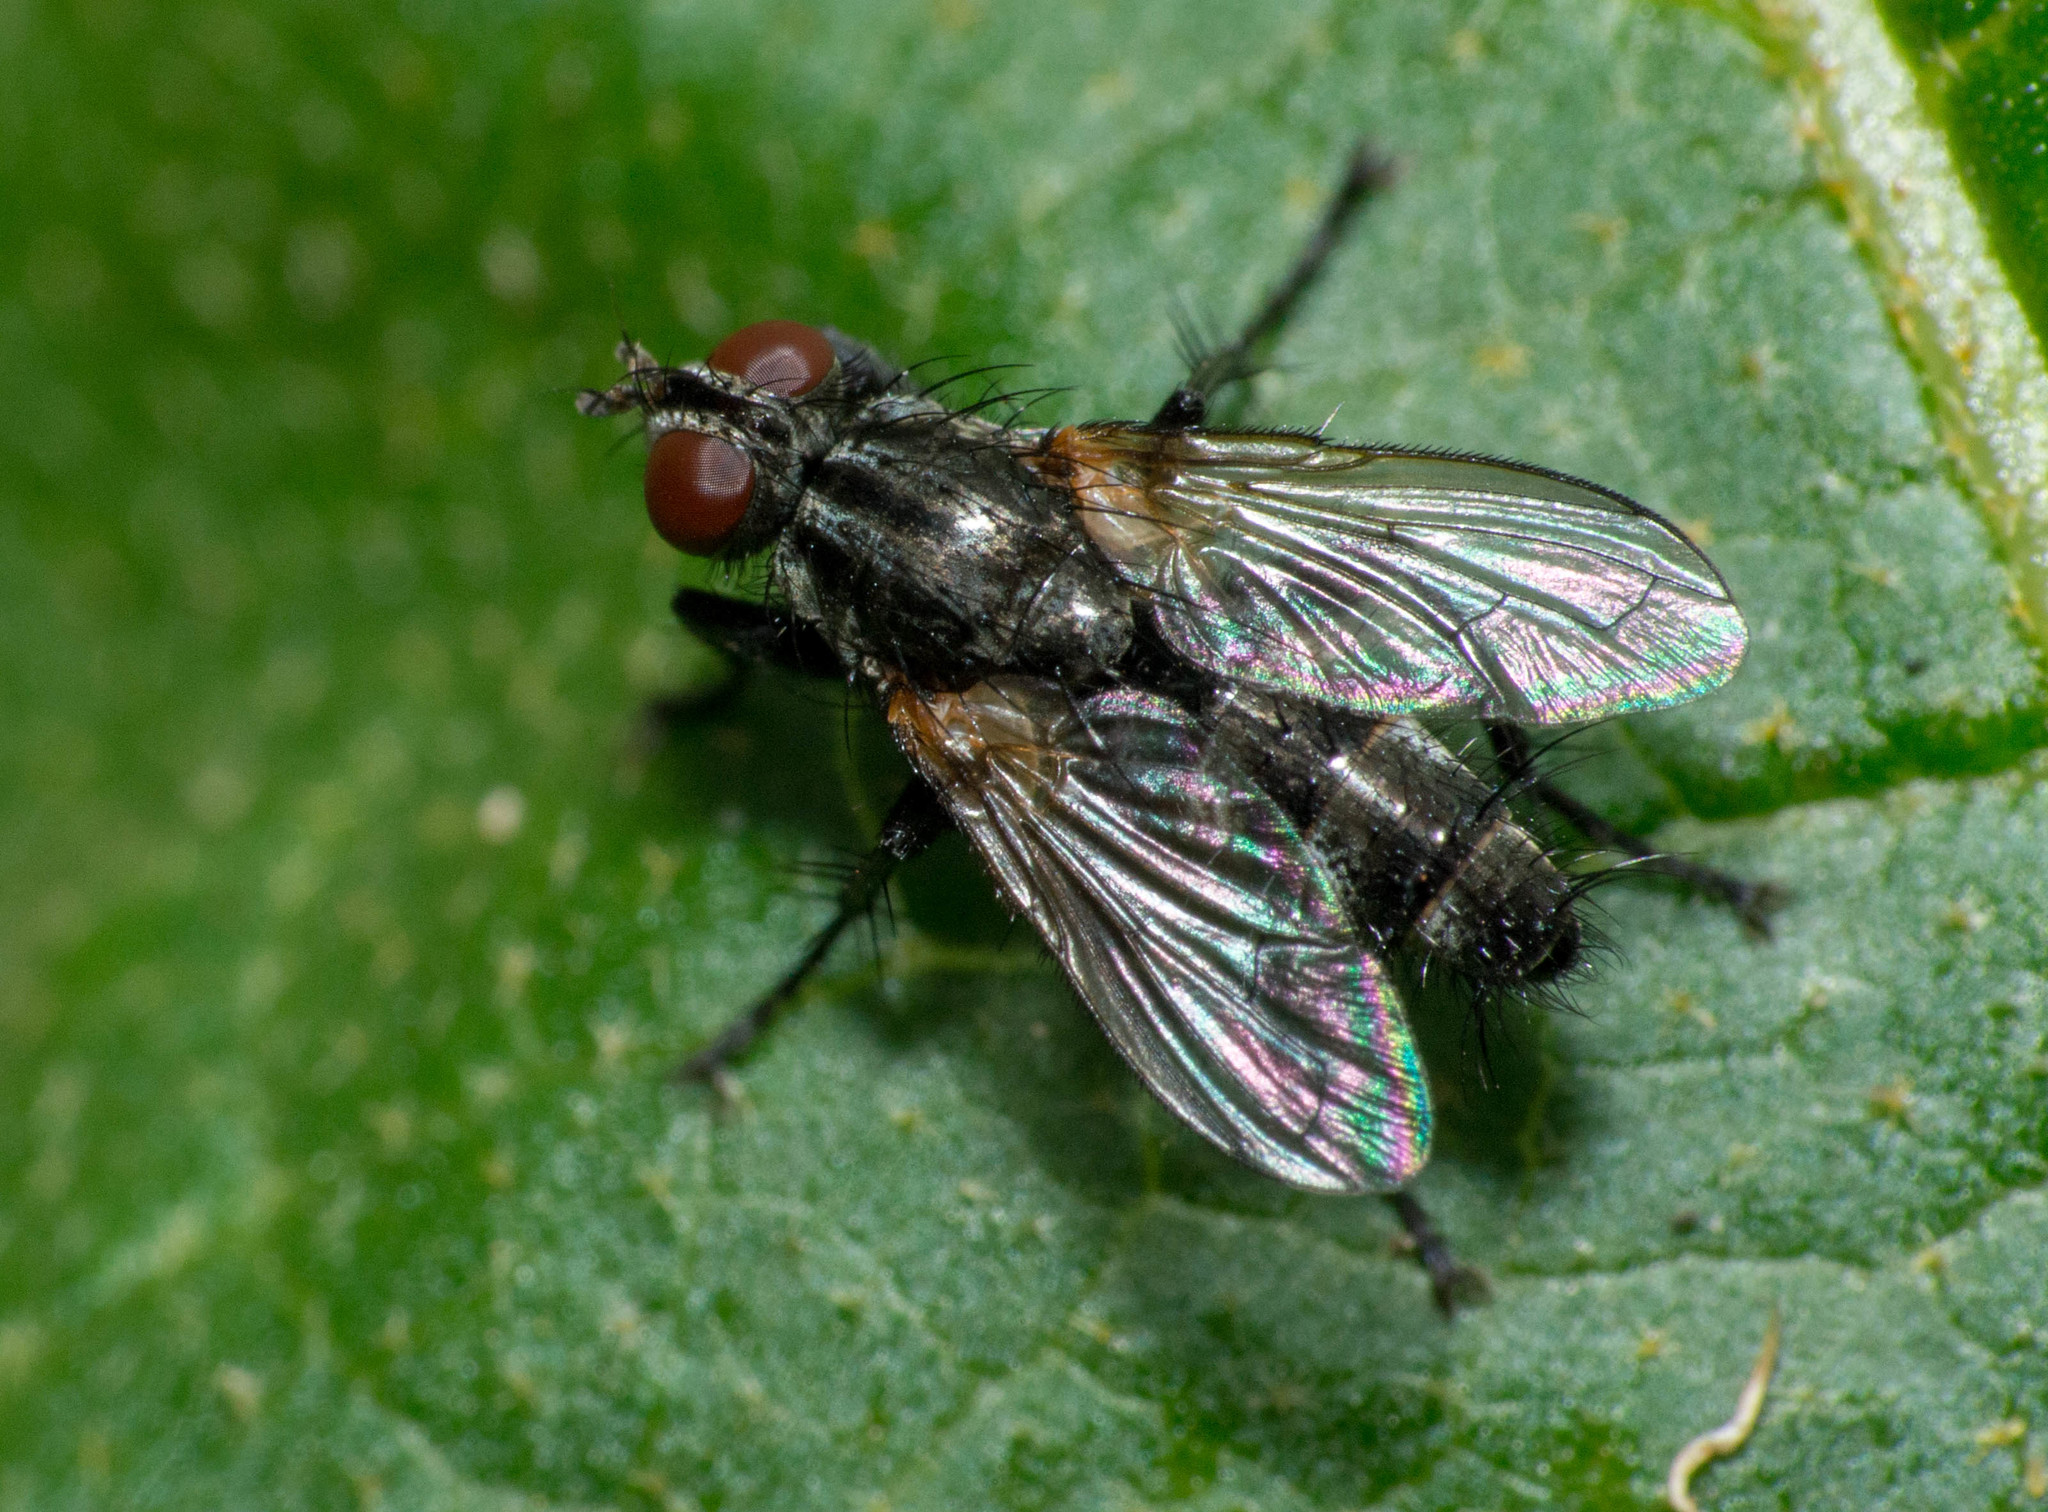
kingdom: Animalia
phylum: Arthropoda
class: Insecta
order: Diptera
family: Calliphoridae
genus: Stevenia
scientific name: Stevenia deceptoria
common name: Grizzled woodlouse-fly
